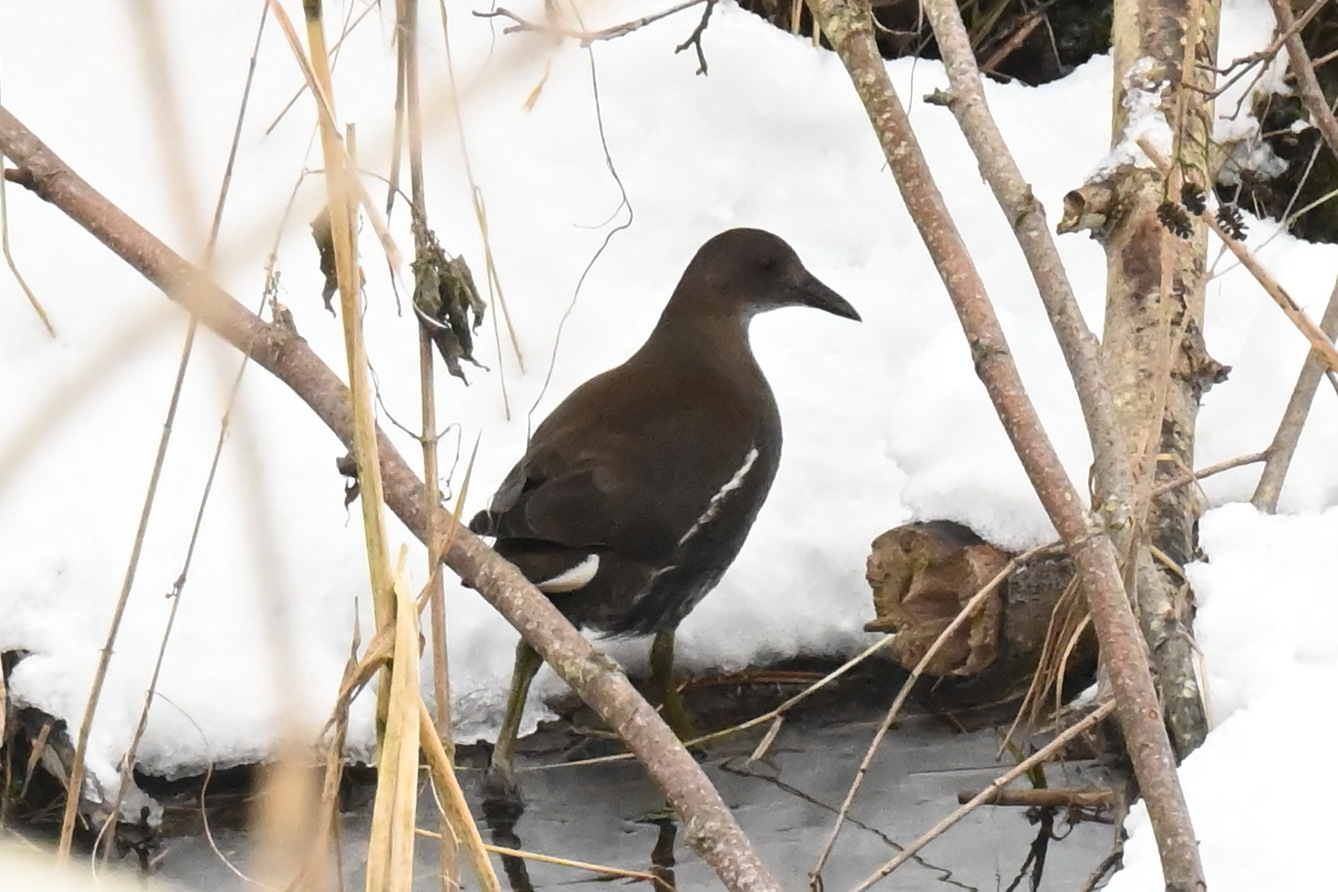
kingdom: Animalia
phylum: Chordata
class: Aves
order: Gruiformes
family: Rallidae
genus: Gallinula
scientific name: Gallinula chloropus
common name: Common moorhen
